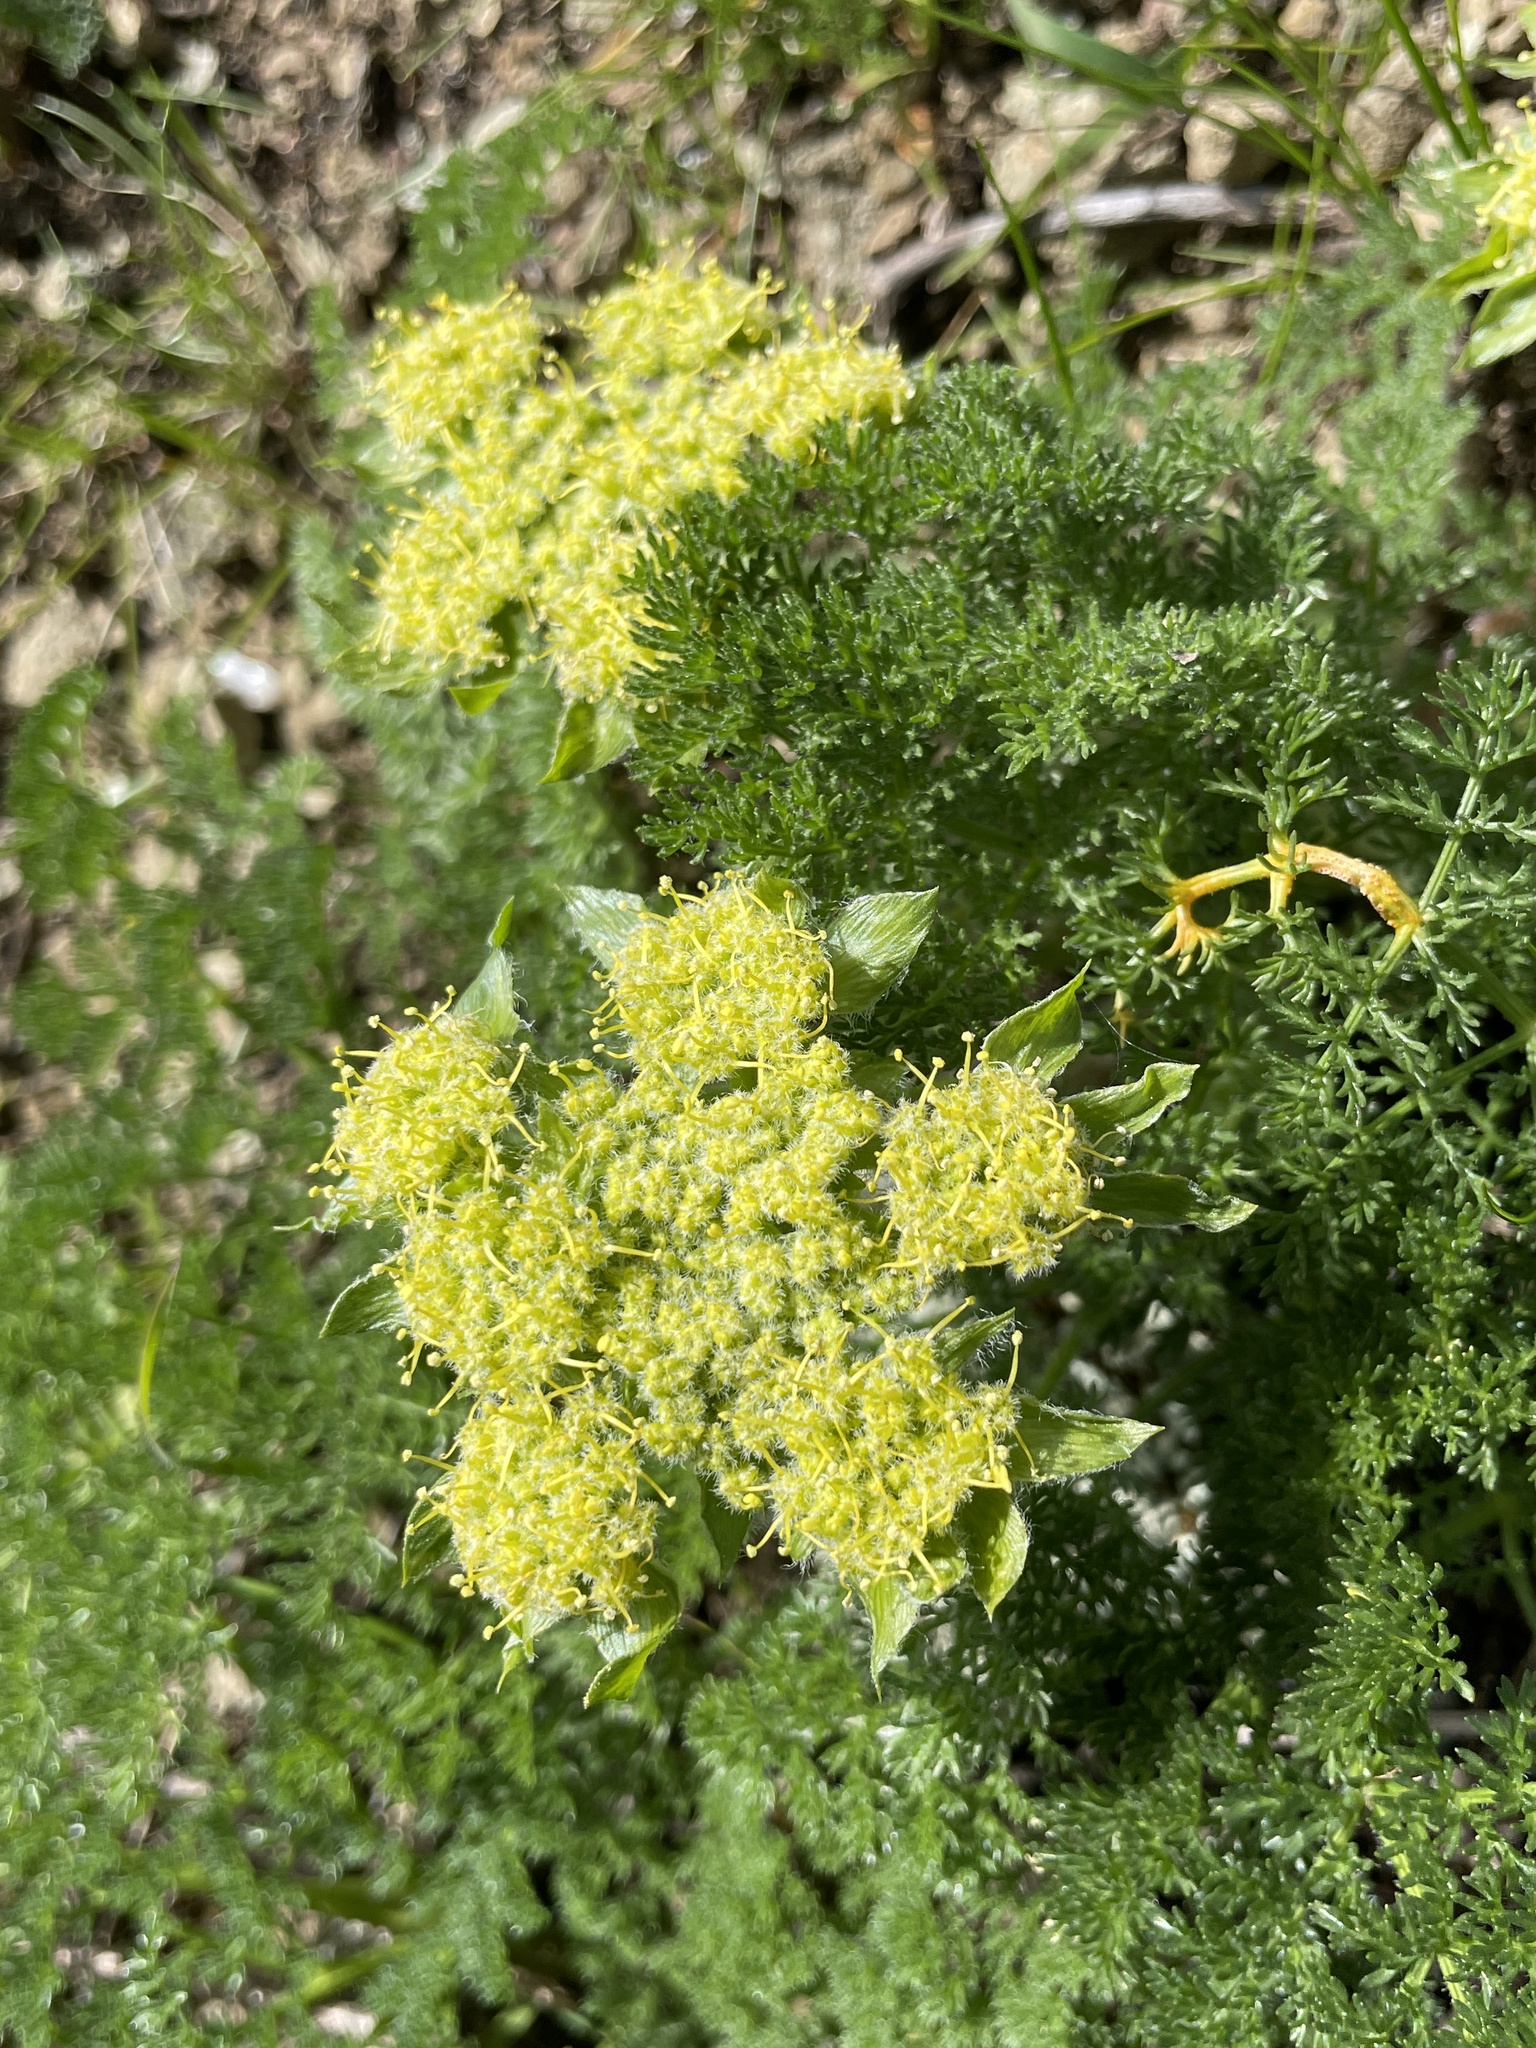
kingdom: Plantae
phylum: Tracheophyta
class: Magnoliopsida
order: Apiales
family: Apiaceae
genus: Lomatium
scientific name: Lomatium dasycarpum
